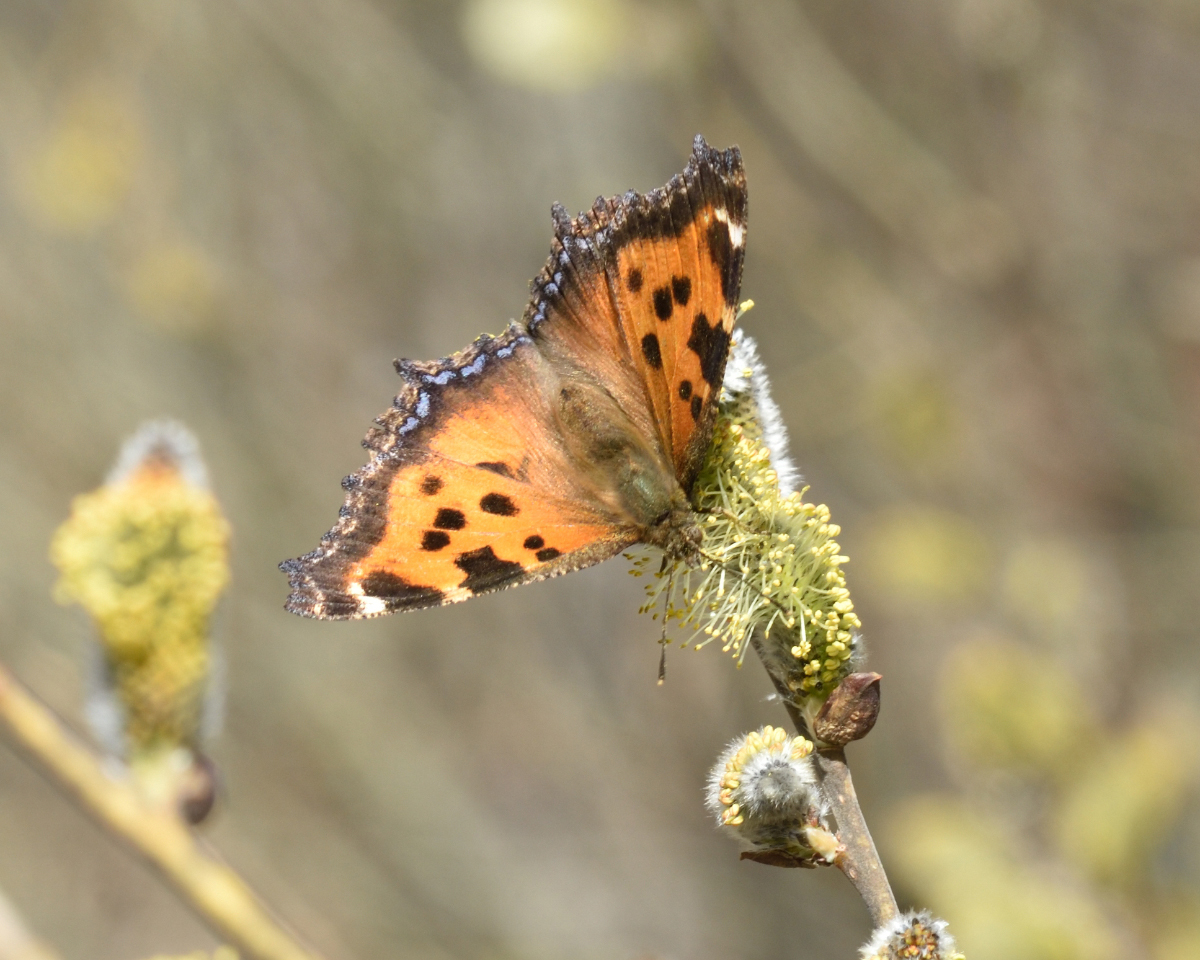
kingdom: Animalia
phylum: Arthropoda
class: Insecta
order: Lepidoptera
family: Nymphalidae
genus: Nymphalis
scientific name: Nymphalis xanthomelas
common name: Scarce tortoiseshell
